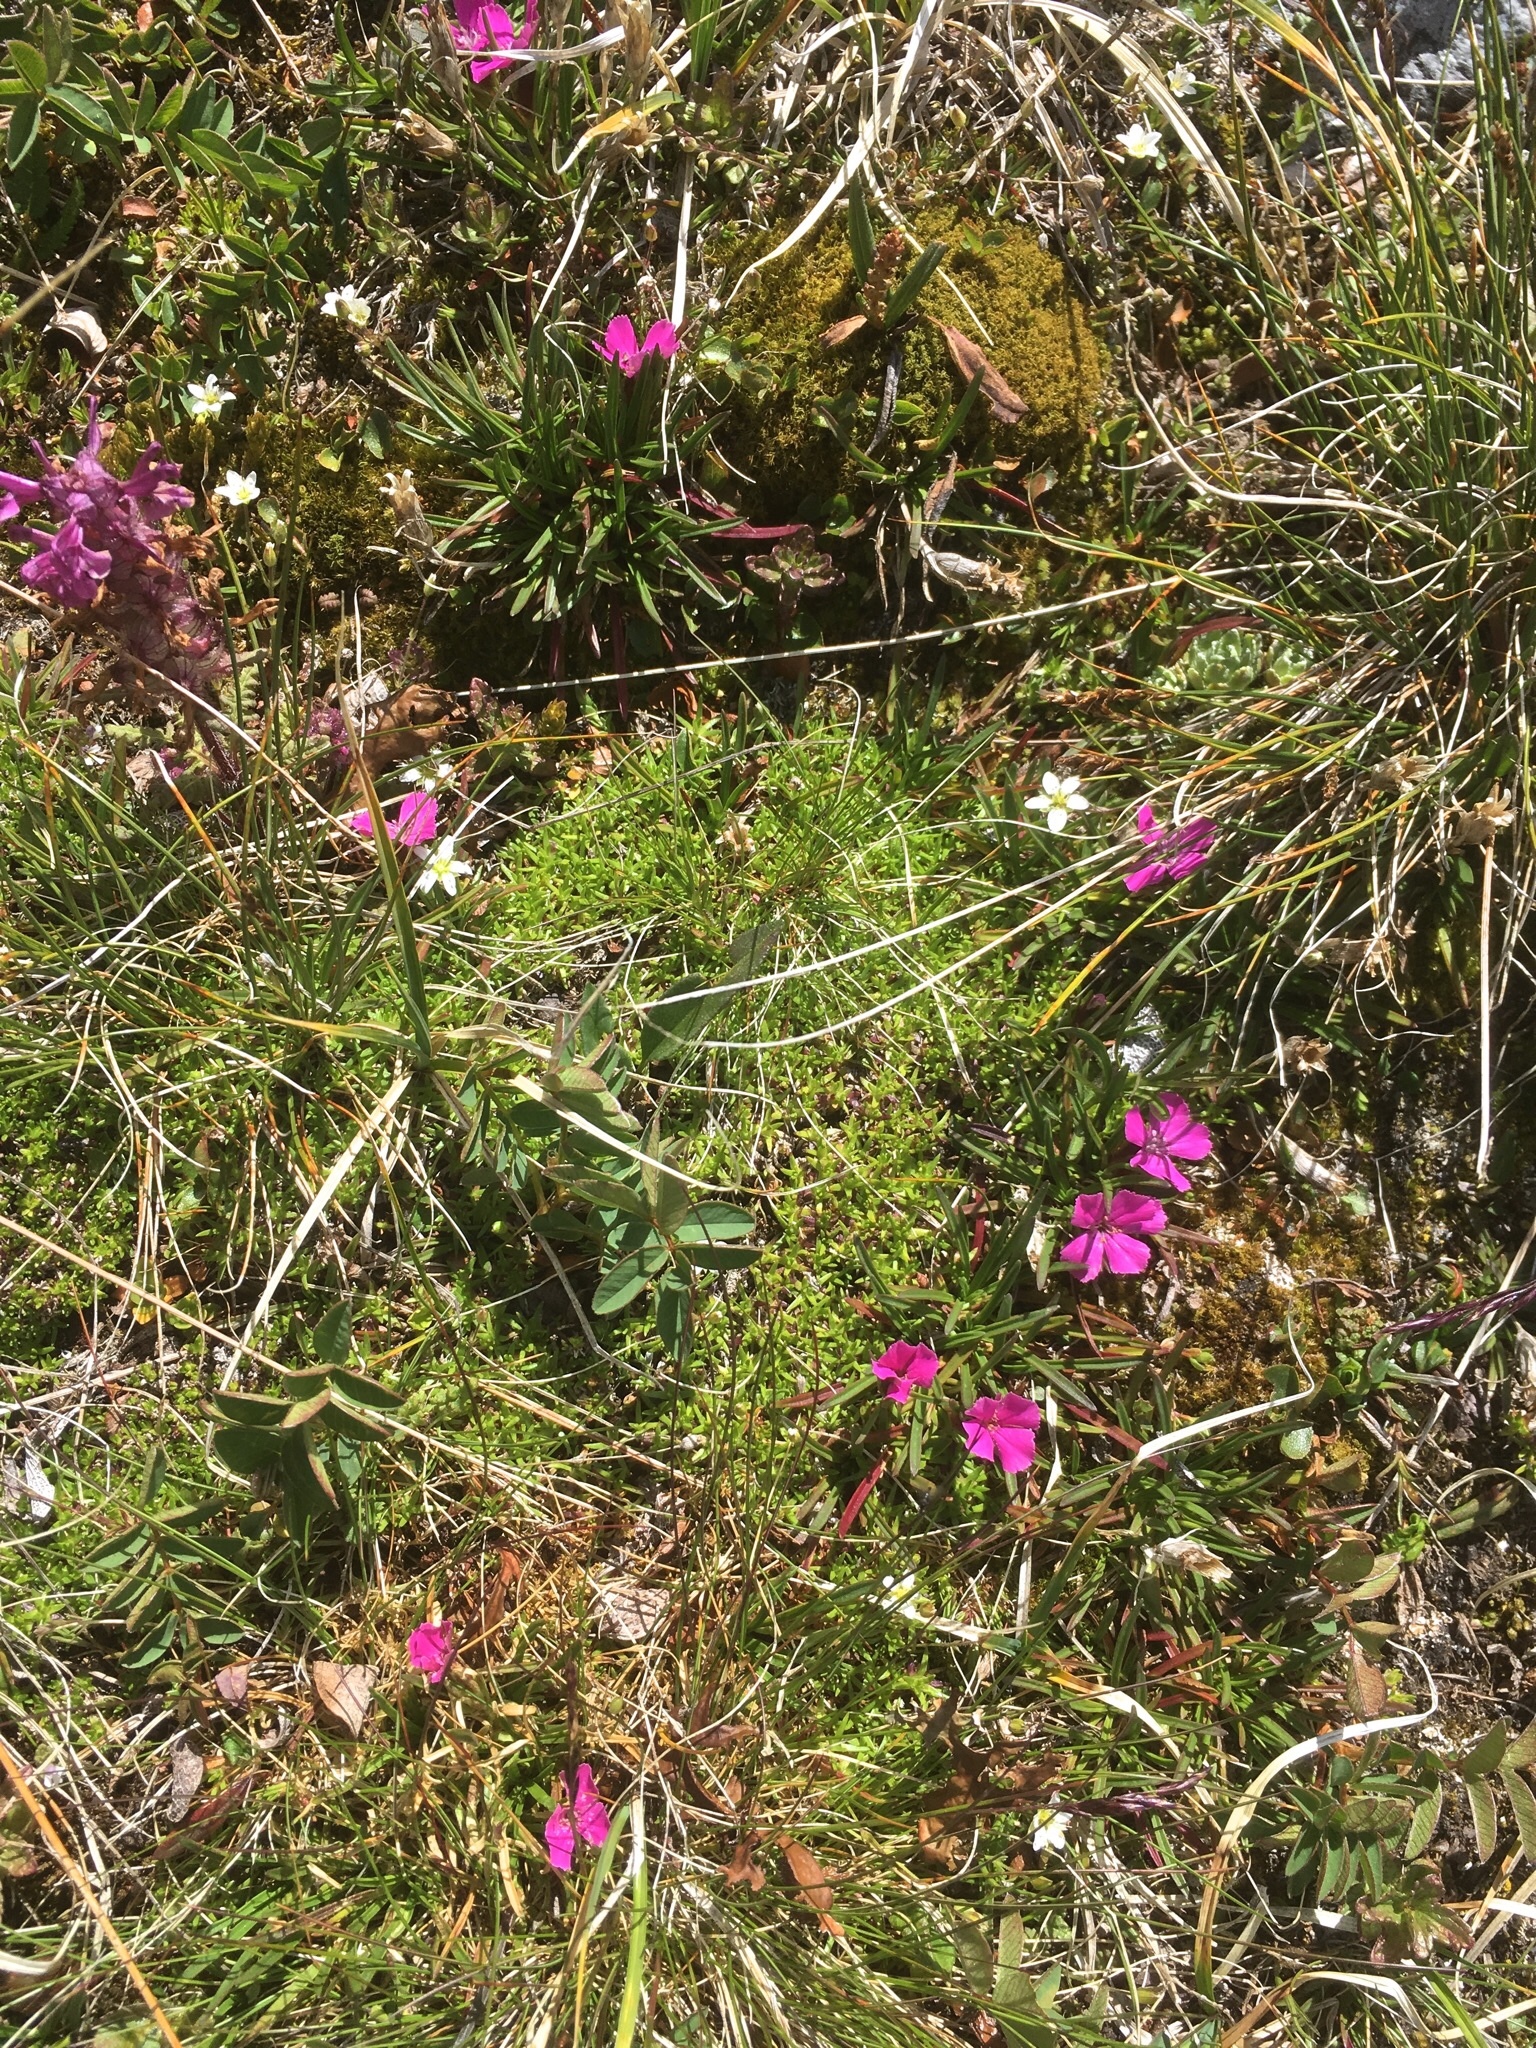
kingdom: Plantae
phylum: Tracheophyta
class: Magnoliopsida
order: Caryophyllales
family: Caryophyllaceae
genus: Dianthus
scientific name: Dianthus glacialis
